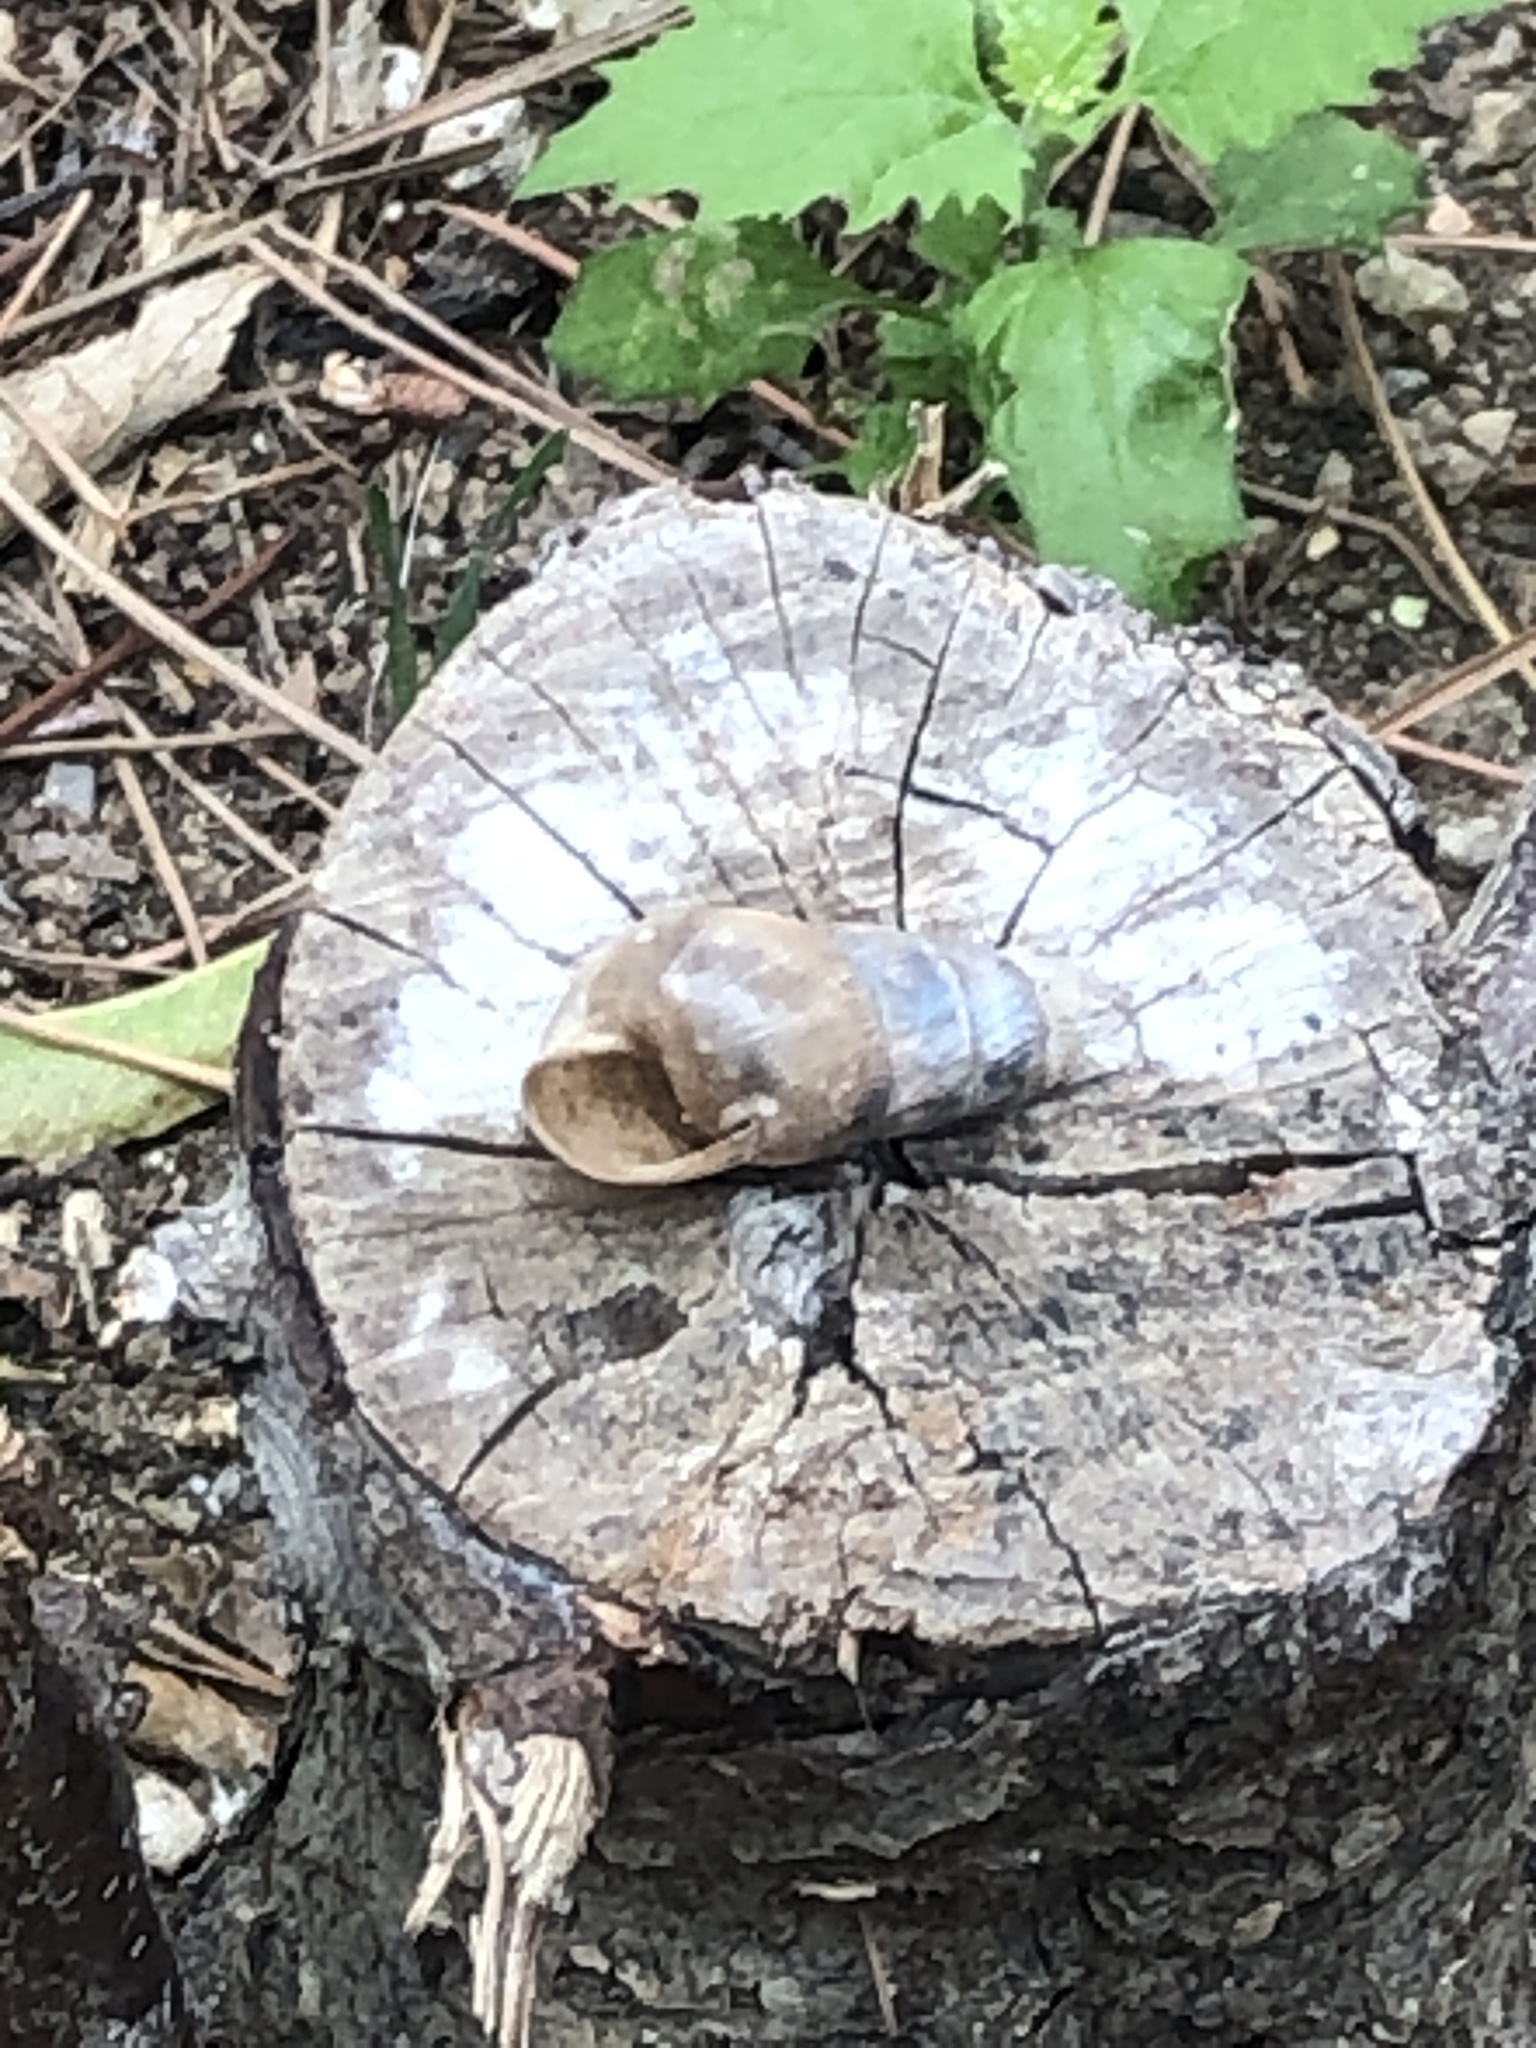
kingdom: Animalia
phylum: Mollusca
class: Gastropoda
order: Stylommatophora
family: Achatinidae
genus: Rumina
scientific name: Rumina decollata
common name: Decollate snail
